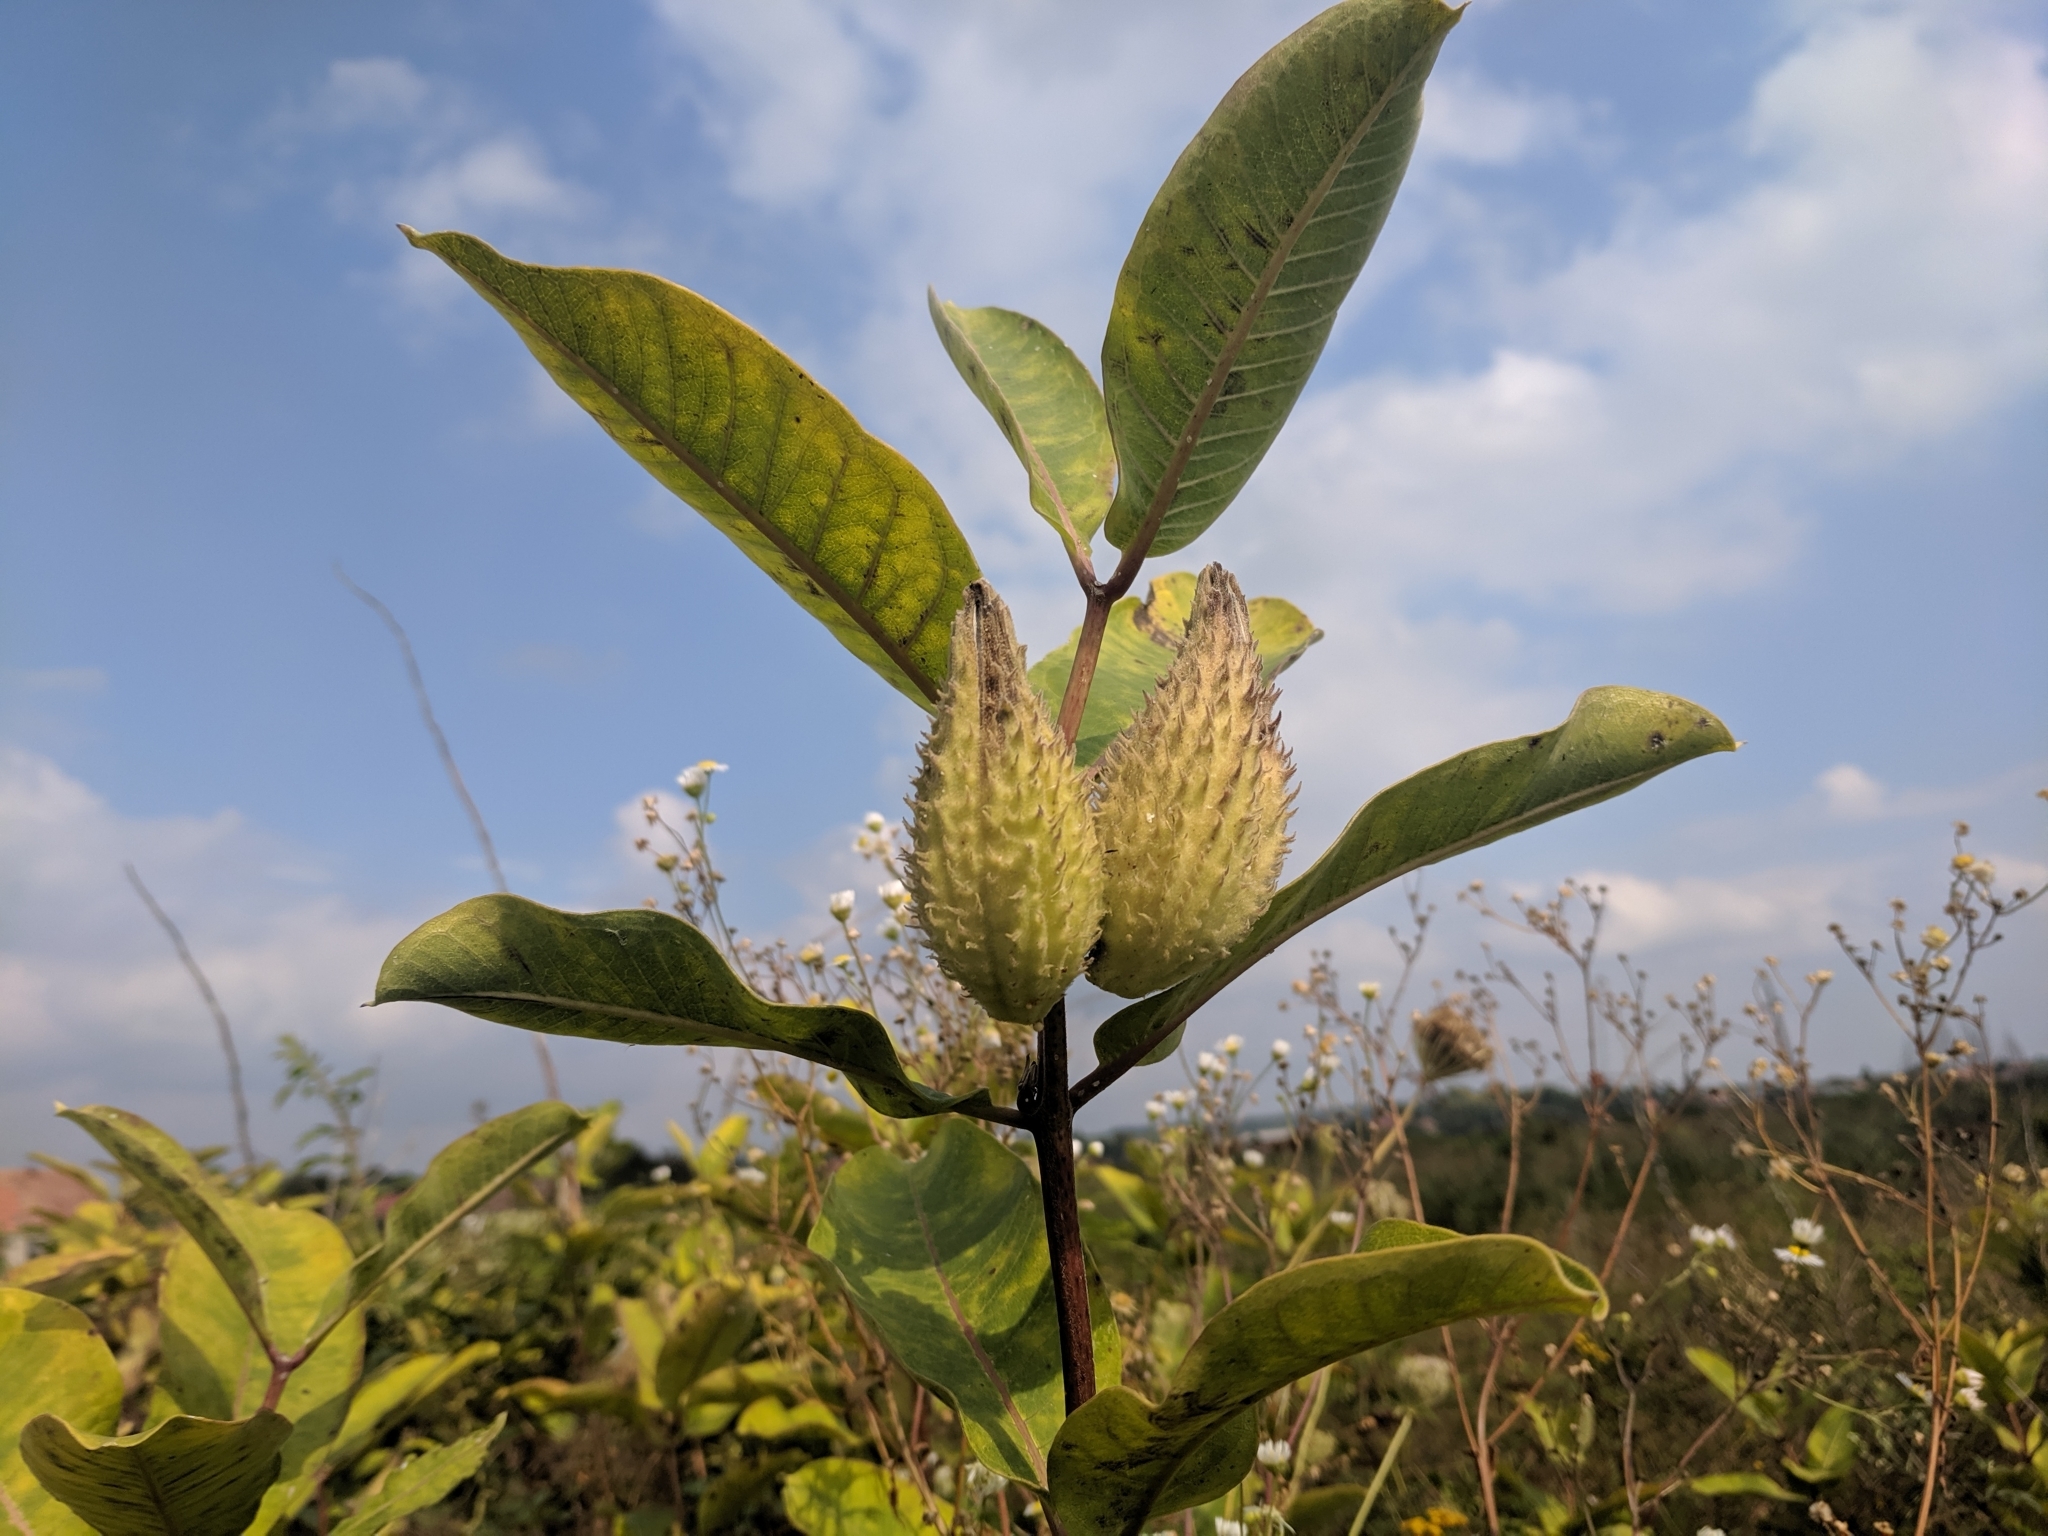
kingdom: Plantae
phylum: Tracheophyta
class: Magnoliopsida
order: Gentianales
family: Apocynaceae
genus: Asclepias
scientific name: Asclepias syriaca
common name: Common milkweed
